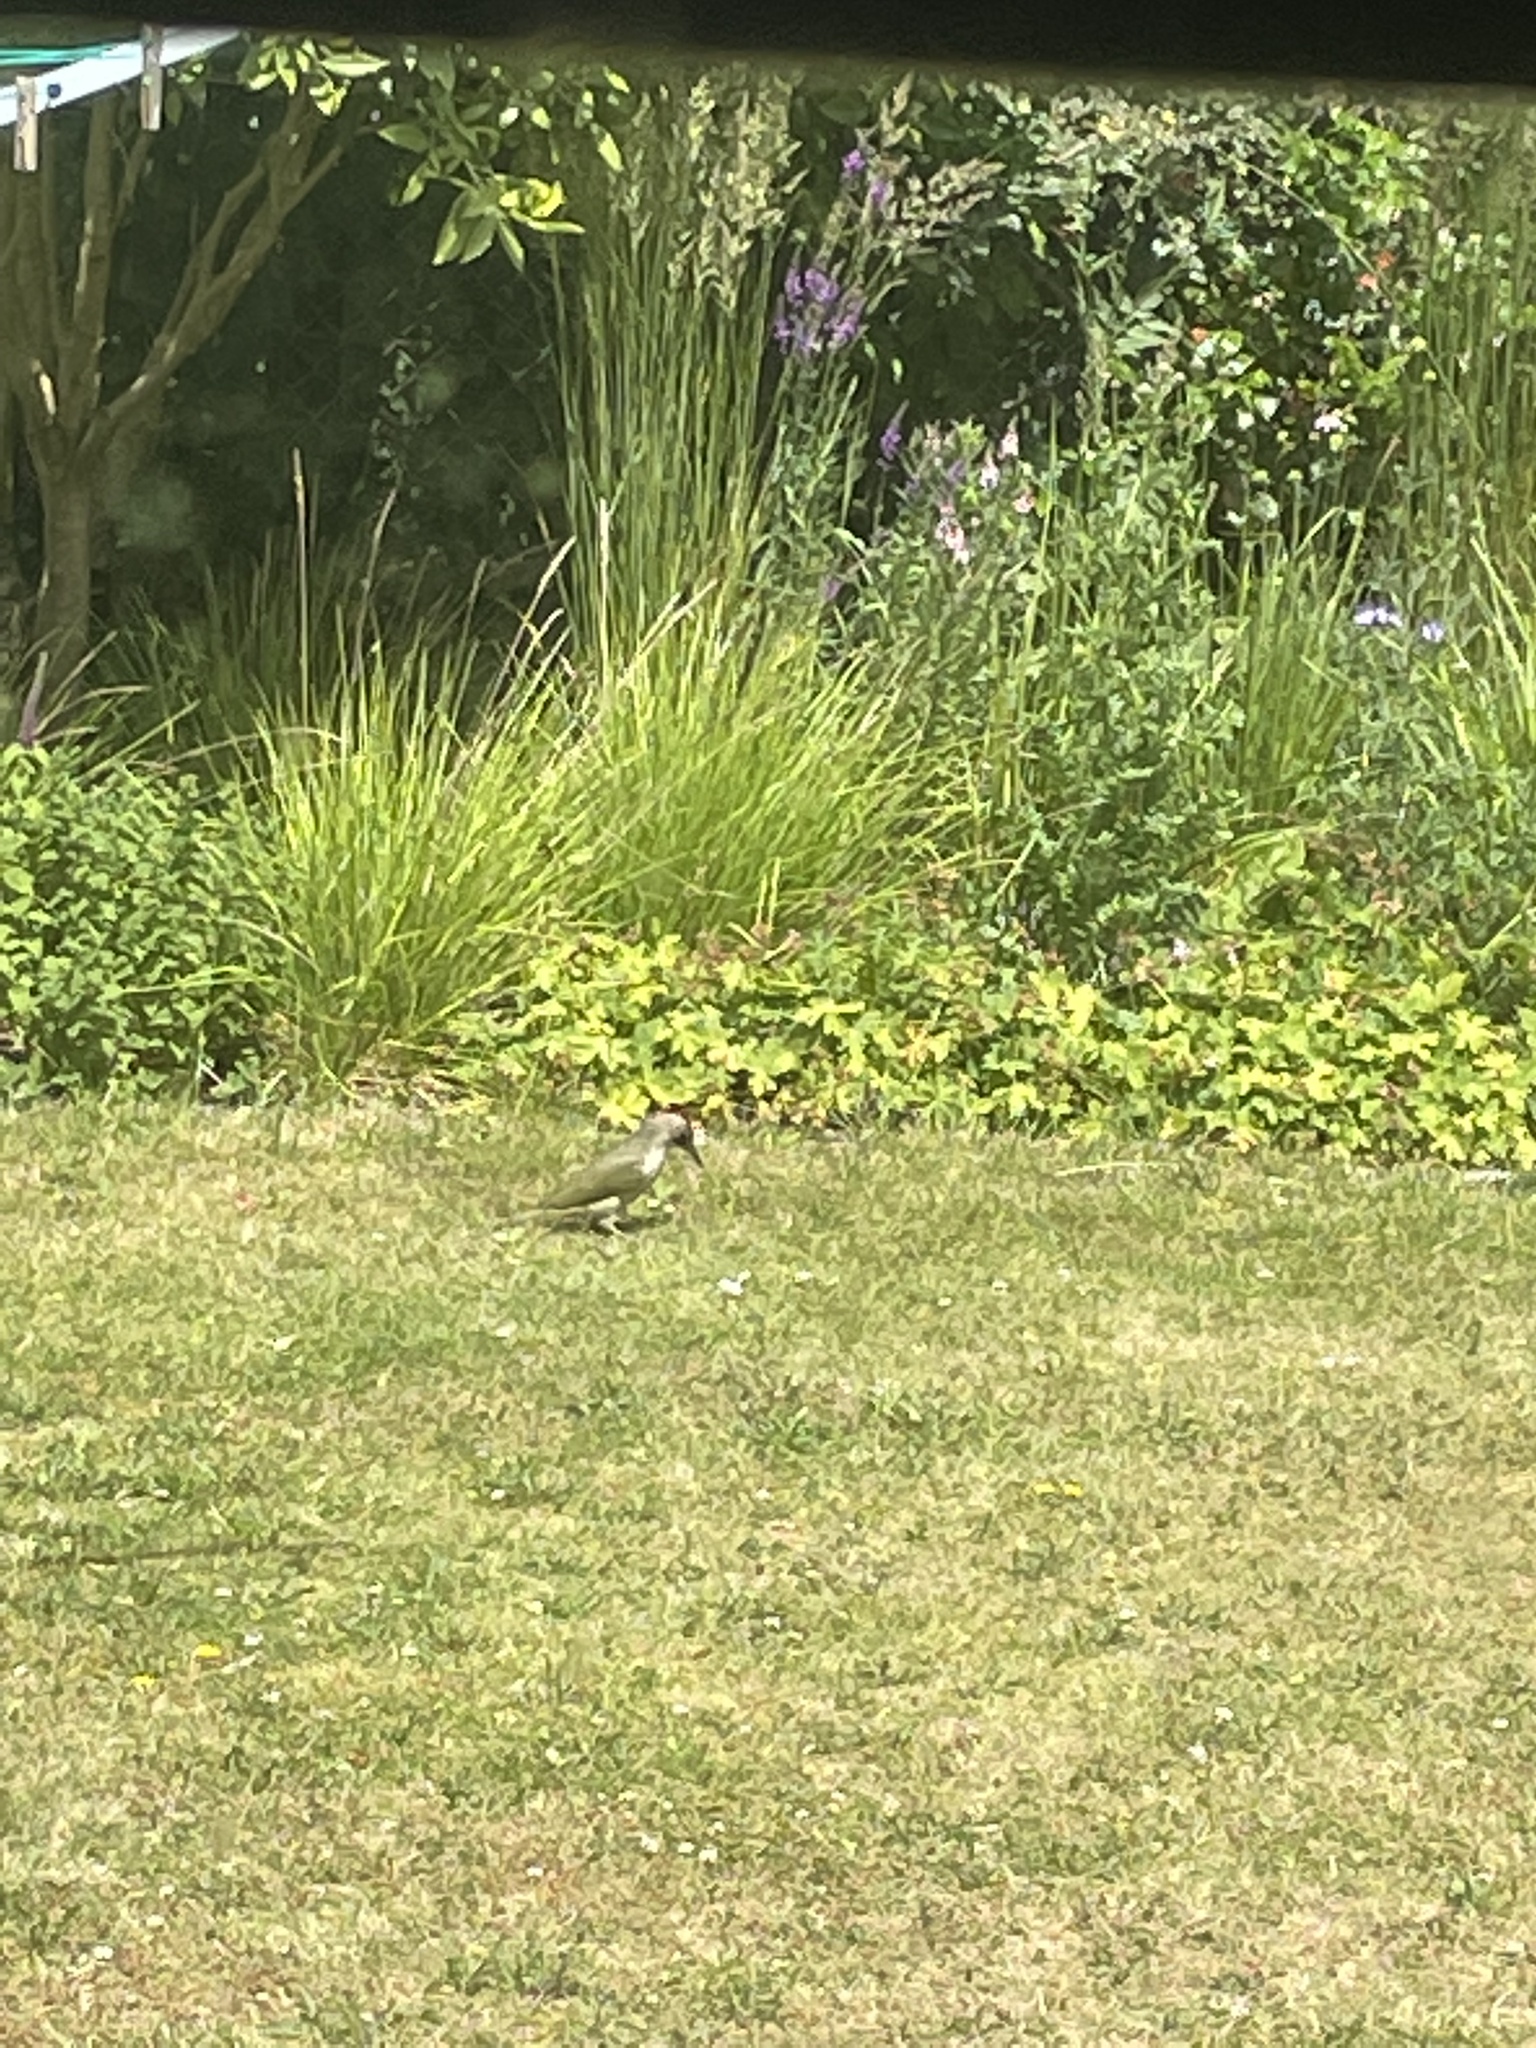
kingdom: Animalia
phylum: Chordata
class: Aves
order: Piciformes
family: Picidae
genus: Picus
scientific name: Picus viridis
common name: European green woodpecker
